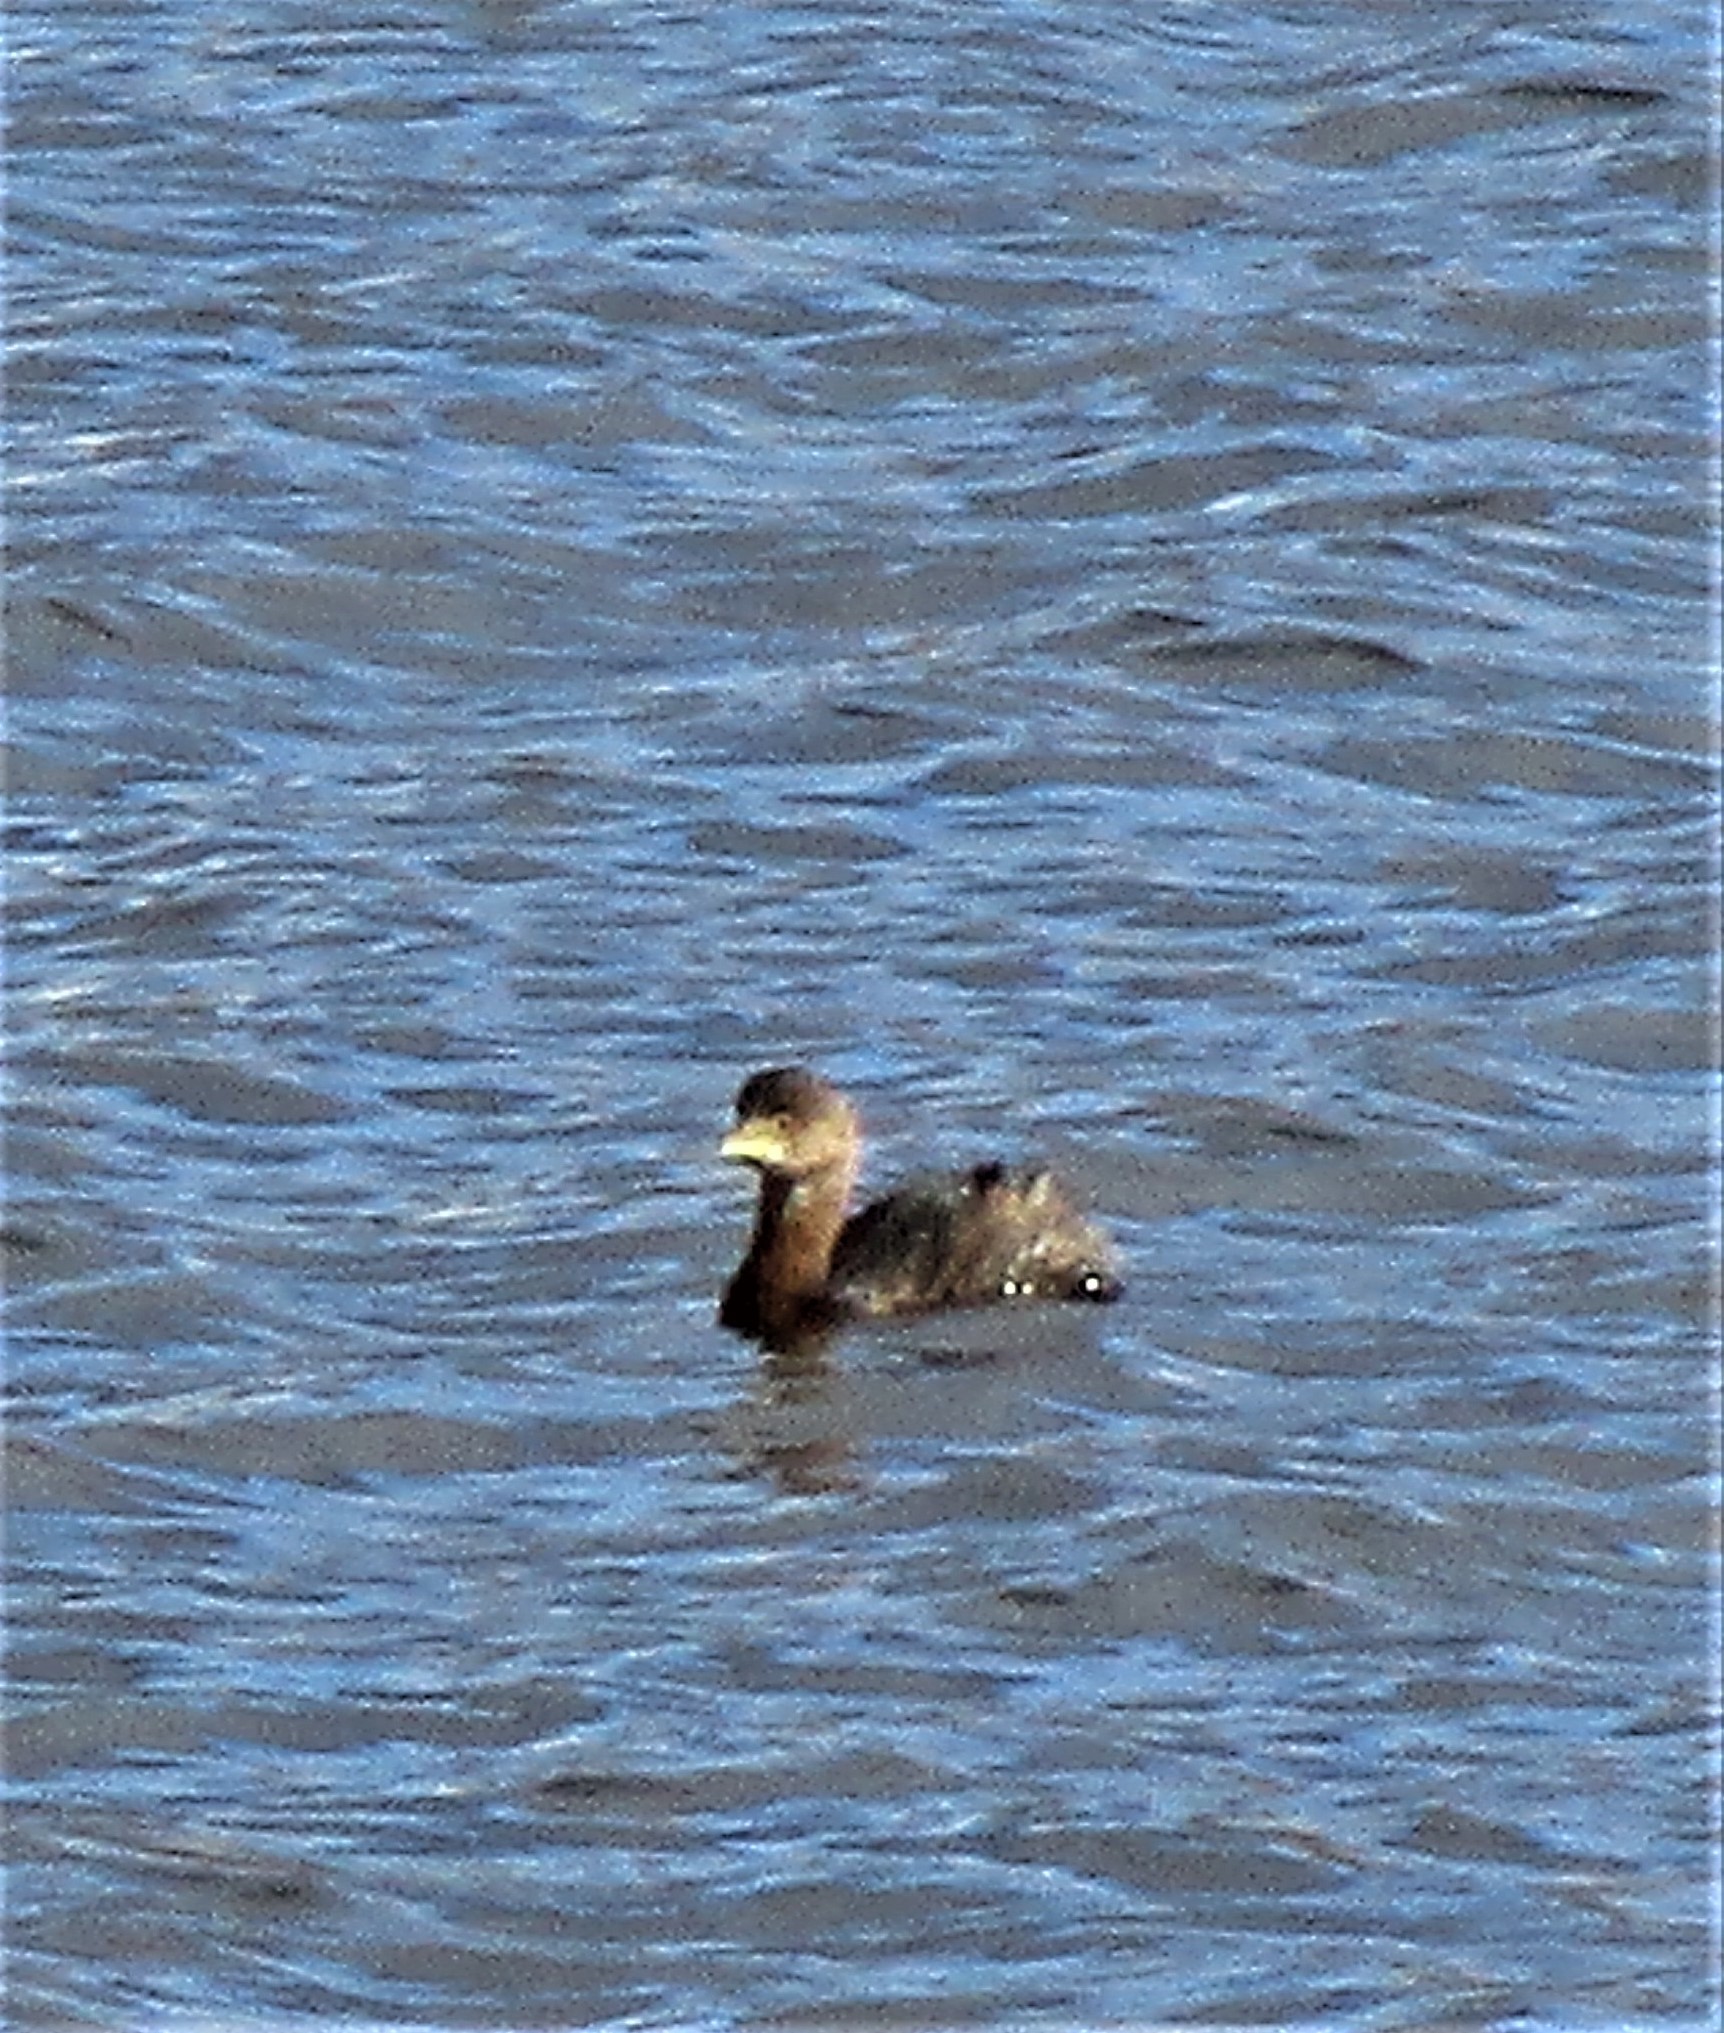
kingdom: Animalia
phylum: Chordata
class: Aves
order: Podicipediformes
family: Podicipedidae
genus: Podilymbus
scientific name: Podilymbus podiceps
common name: Pied-billed grebe
